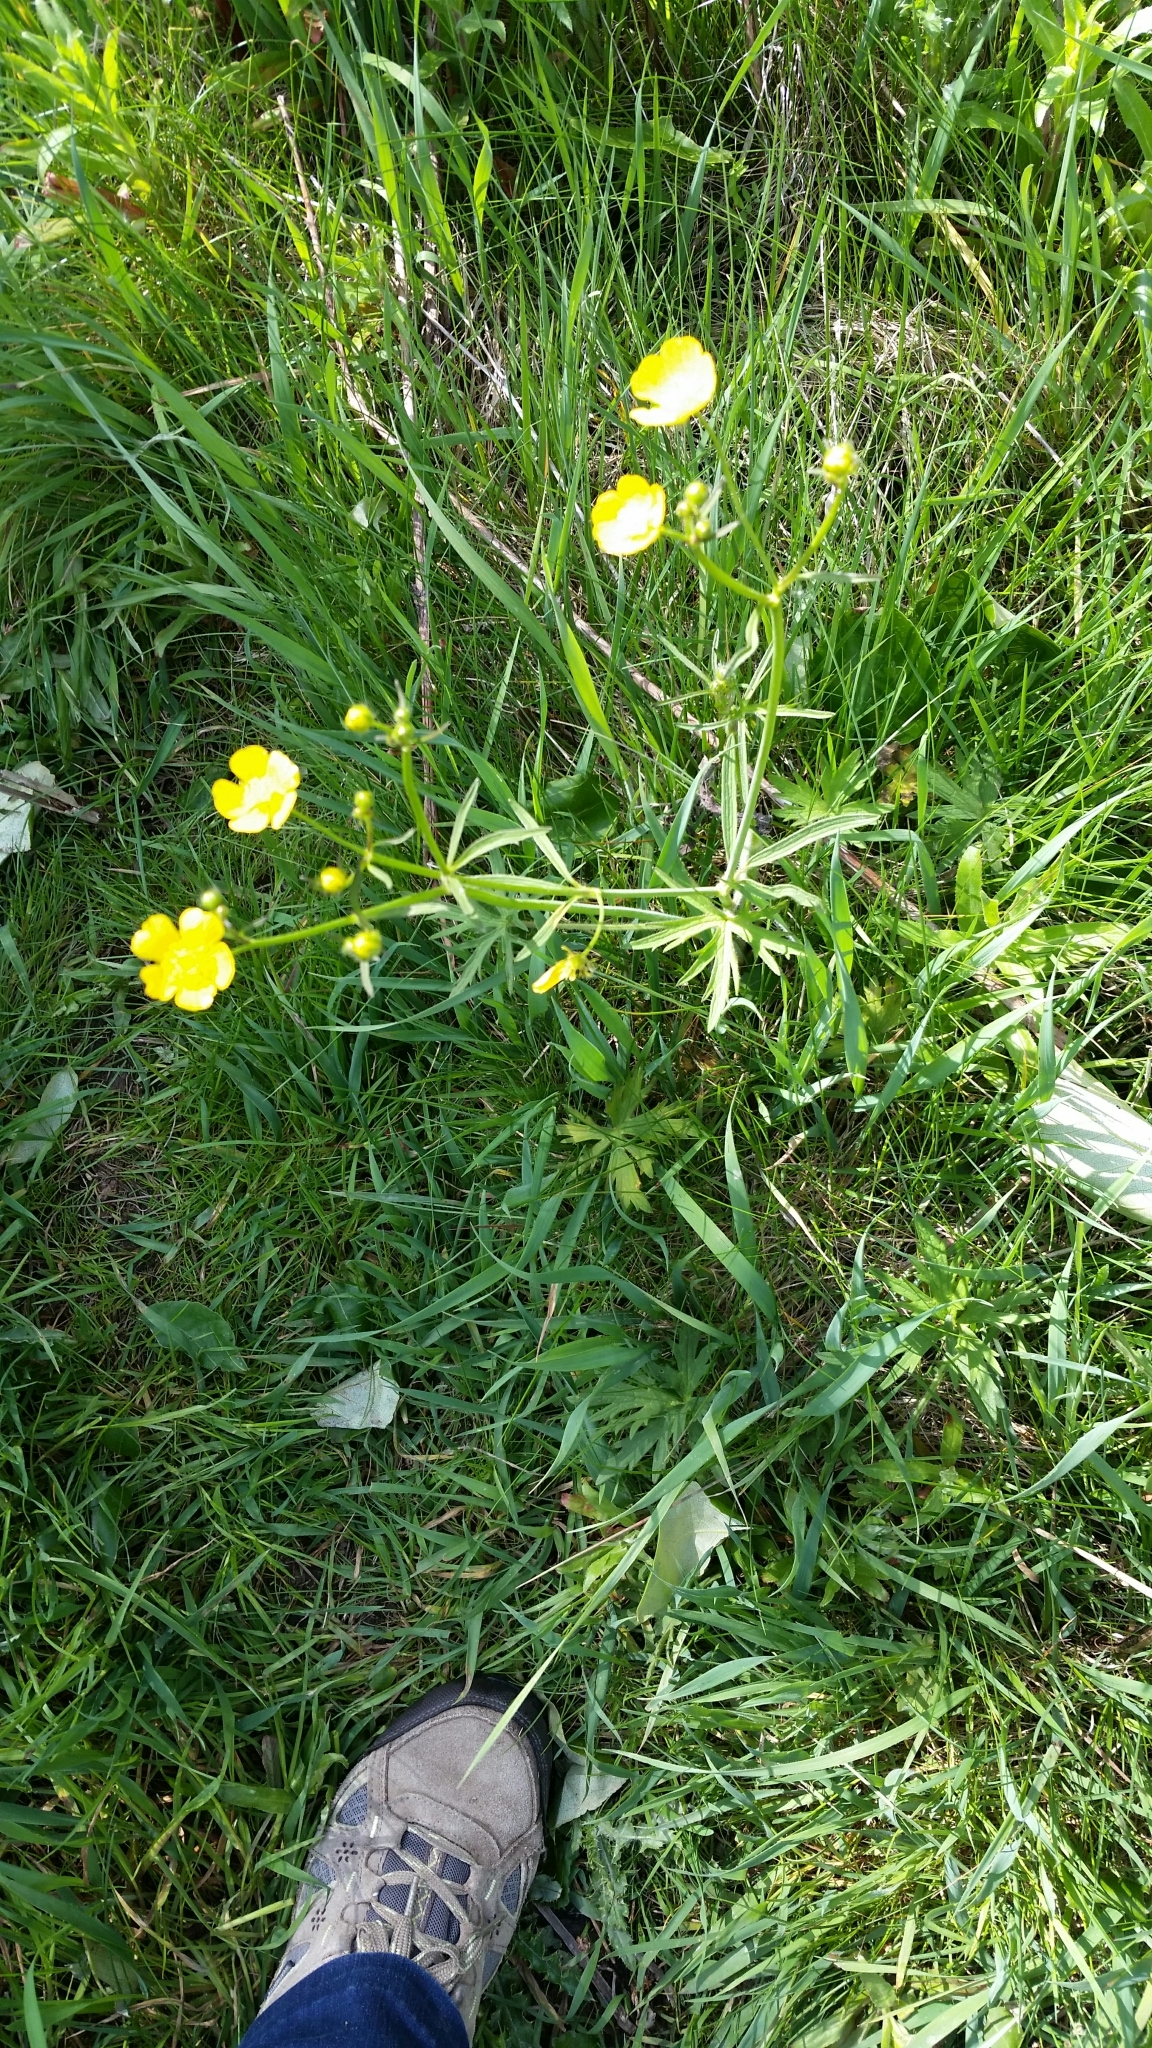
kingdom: Plantae
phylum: Tracheophyta
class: Magnoliopsida
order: Ranunculales
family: Ranunculaceae
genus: Ranunculus
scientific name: Ranunculus acris
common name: Meadow buttercup
